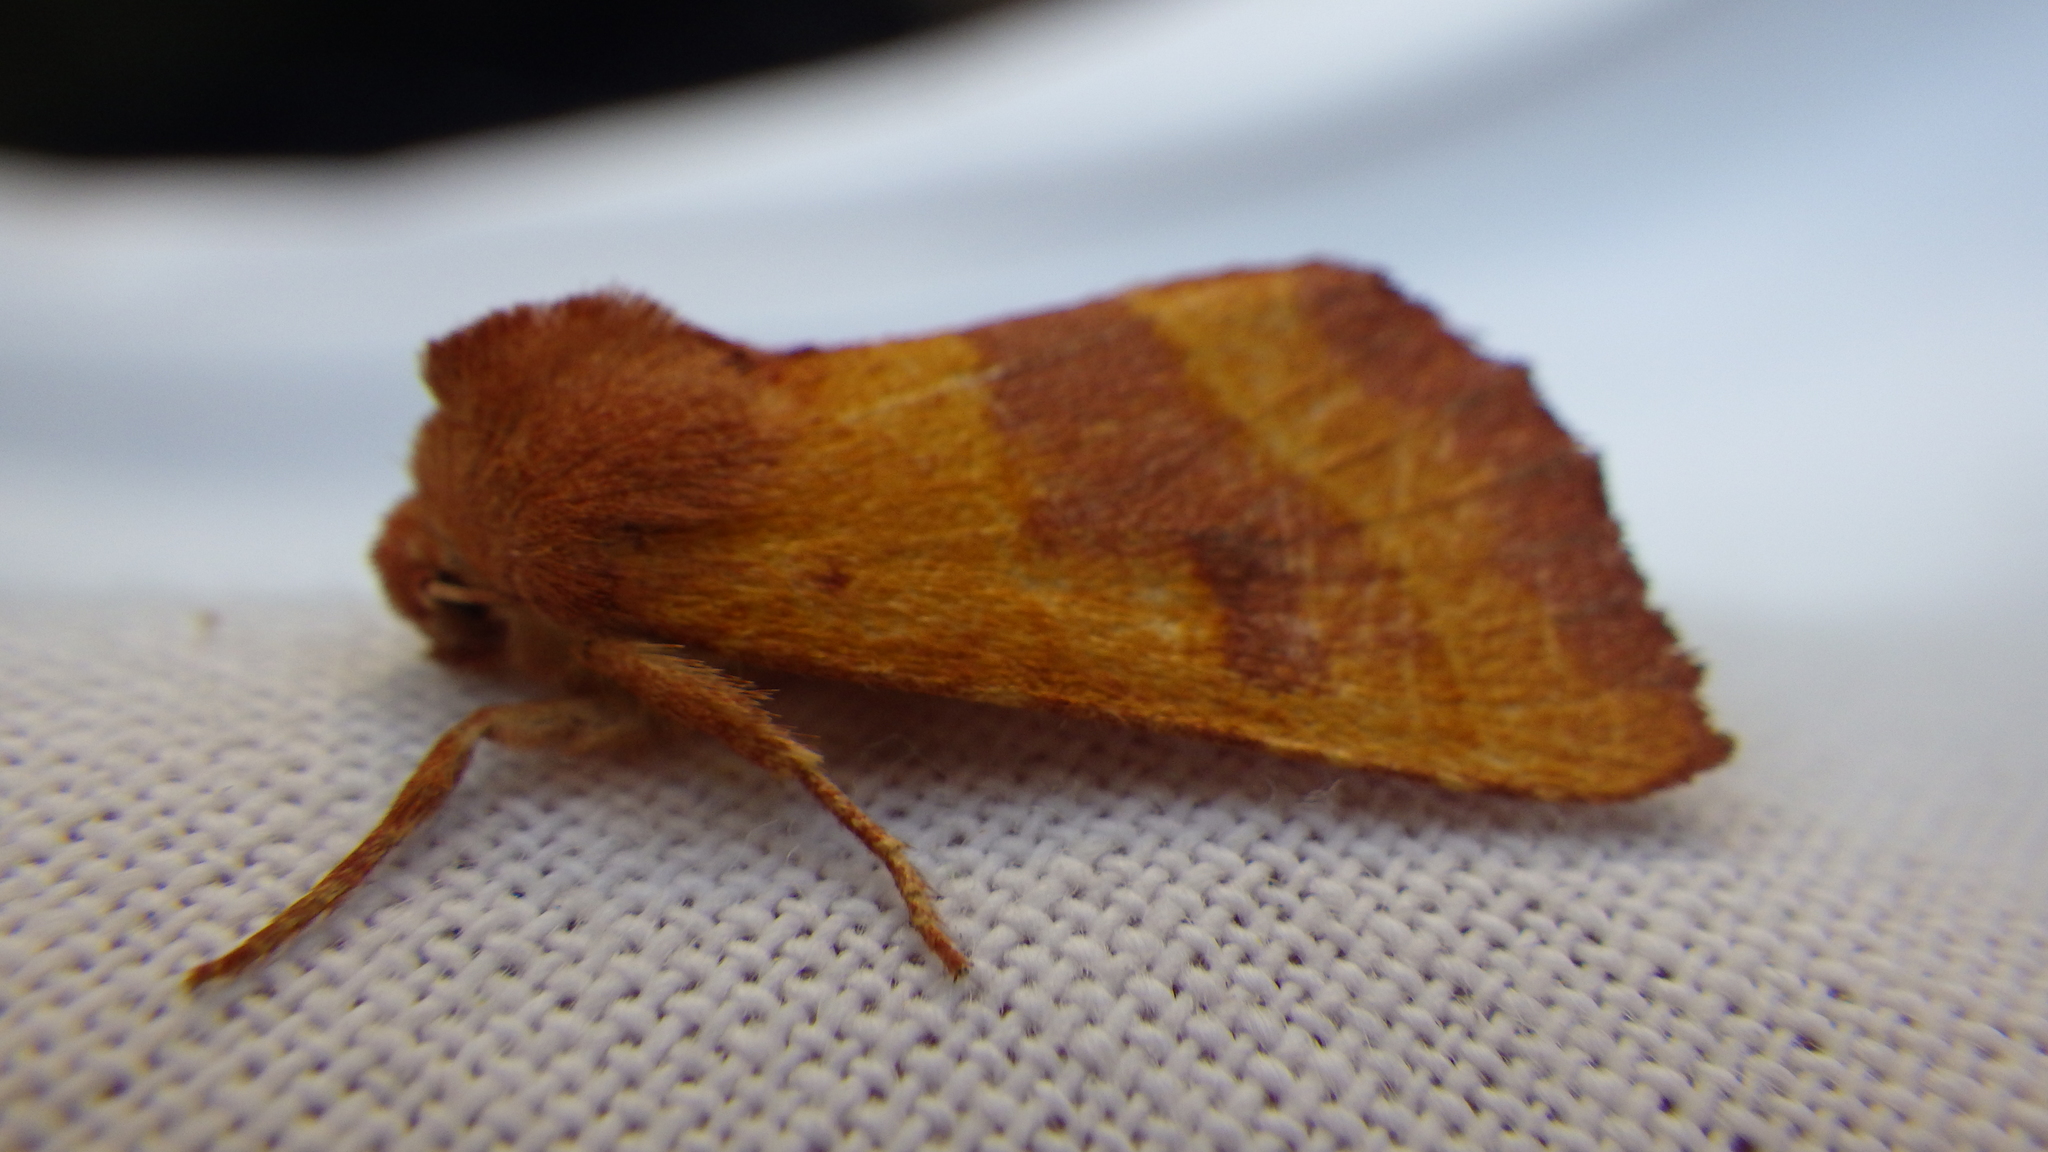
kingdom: Animalia
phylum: Arthropoda
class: Insecta
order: Lepidoptera
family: Noctuidae
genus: Atethmia
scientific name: Atethmia centrago
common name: Centre-barred sallow
